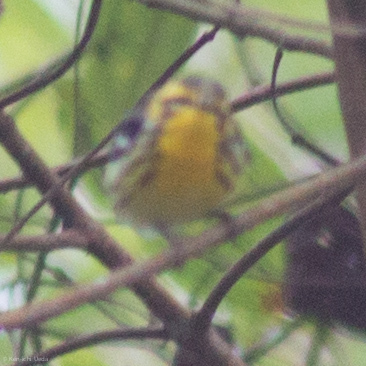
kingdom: Animalia
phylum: Chordata
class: Aves
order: Passeriformes
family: Parulidae
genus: Setophaga
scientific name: Setophaga fusca
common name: Blackburnian warbler
